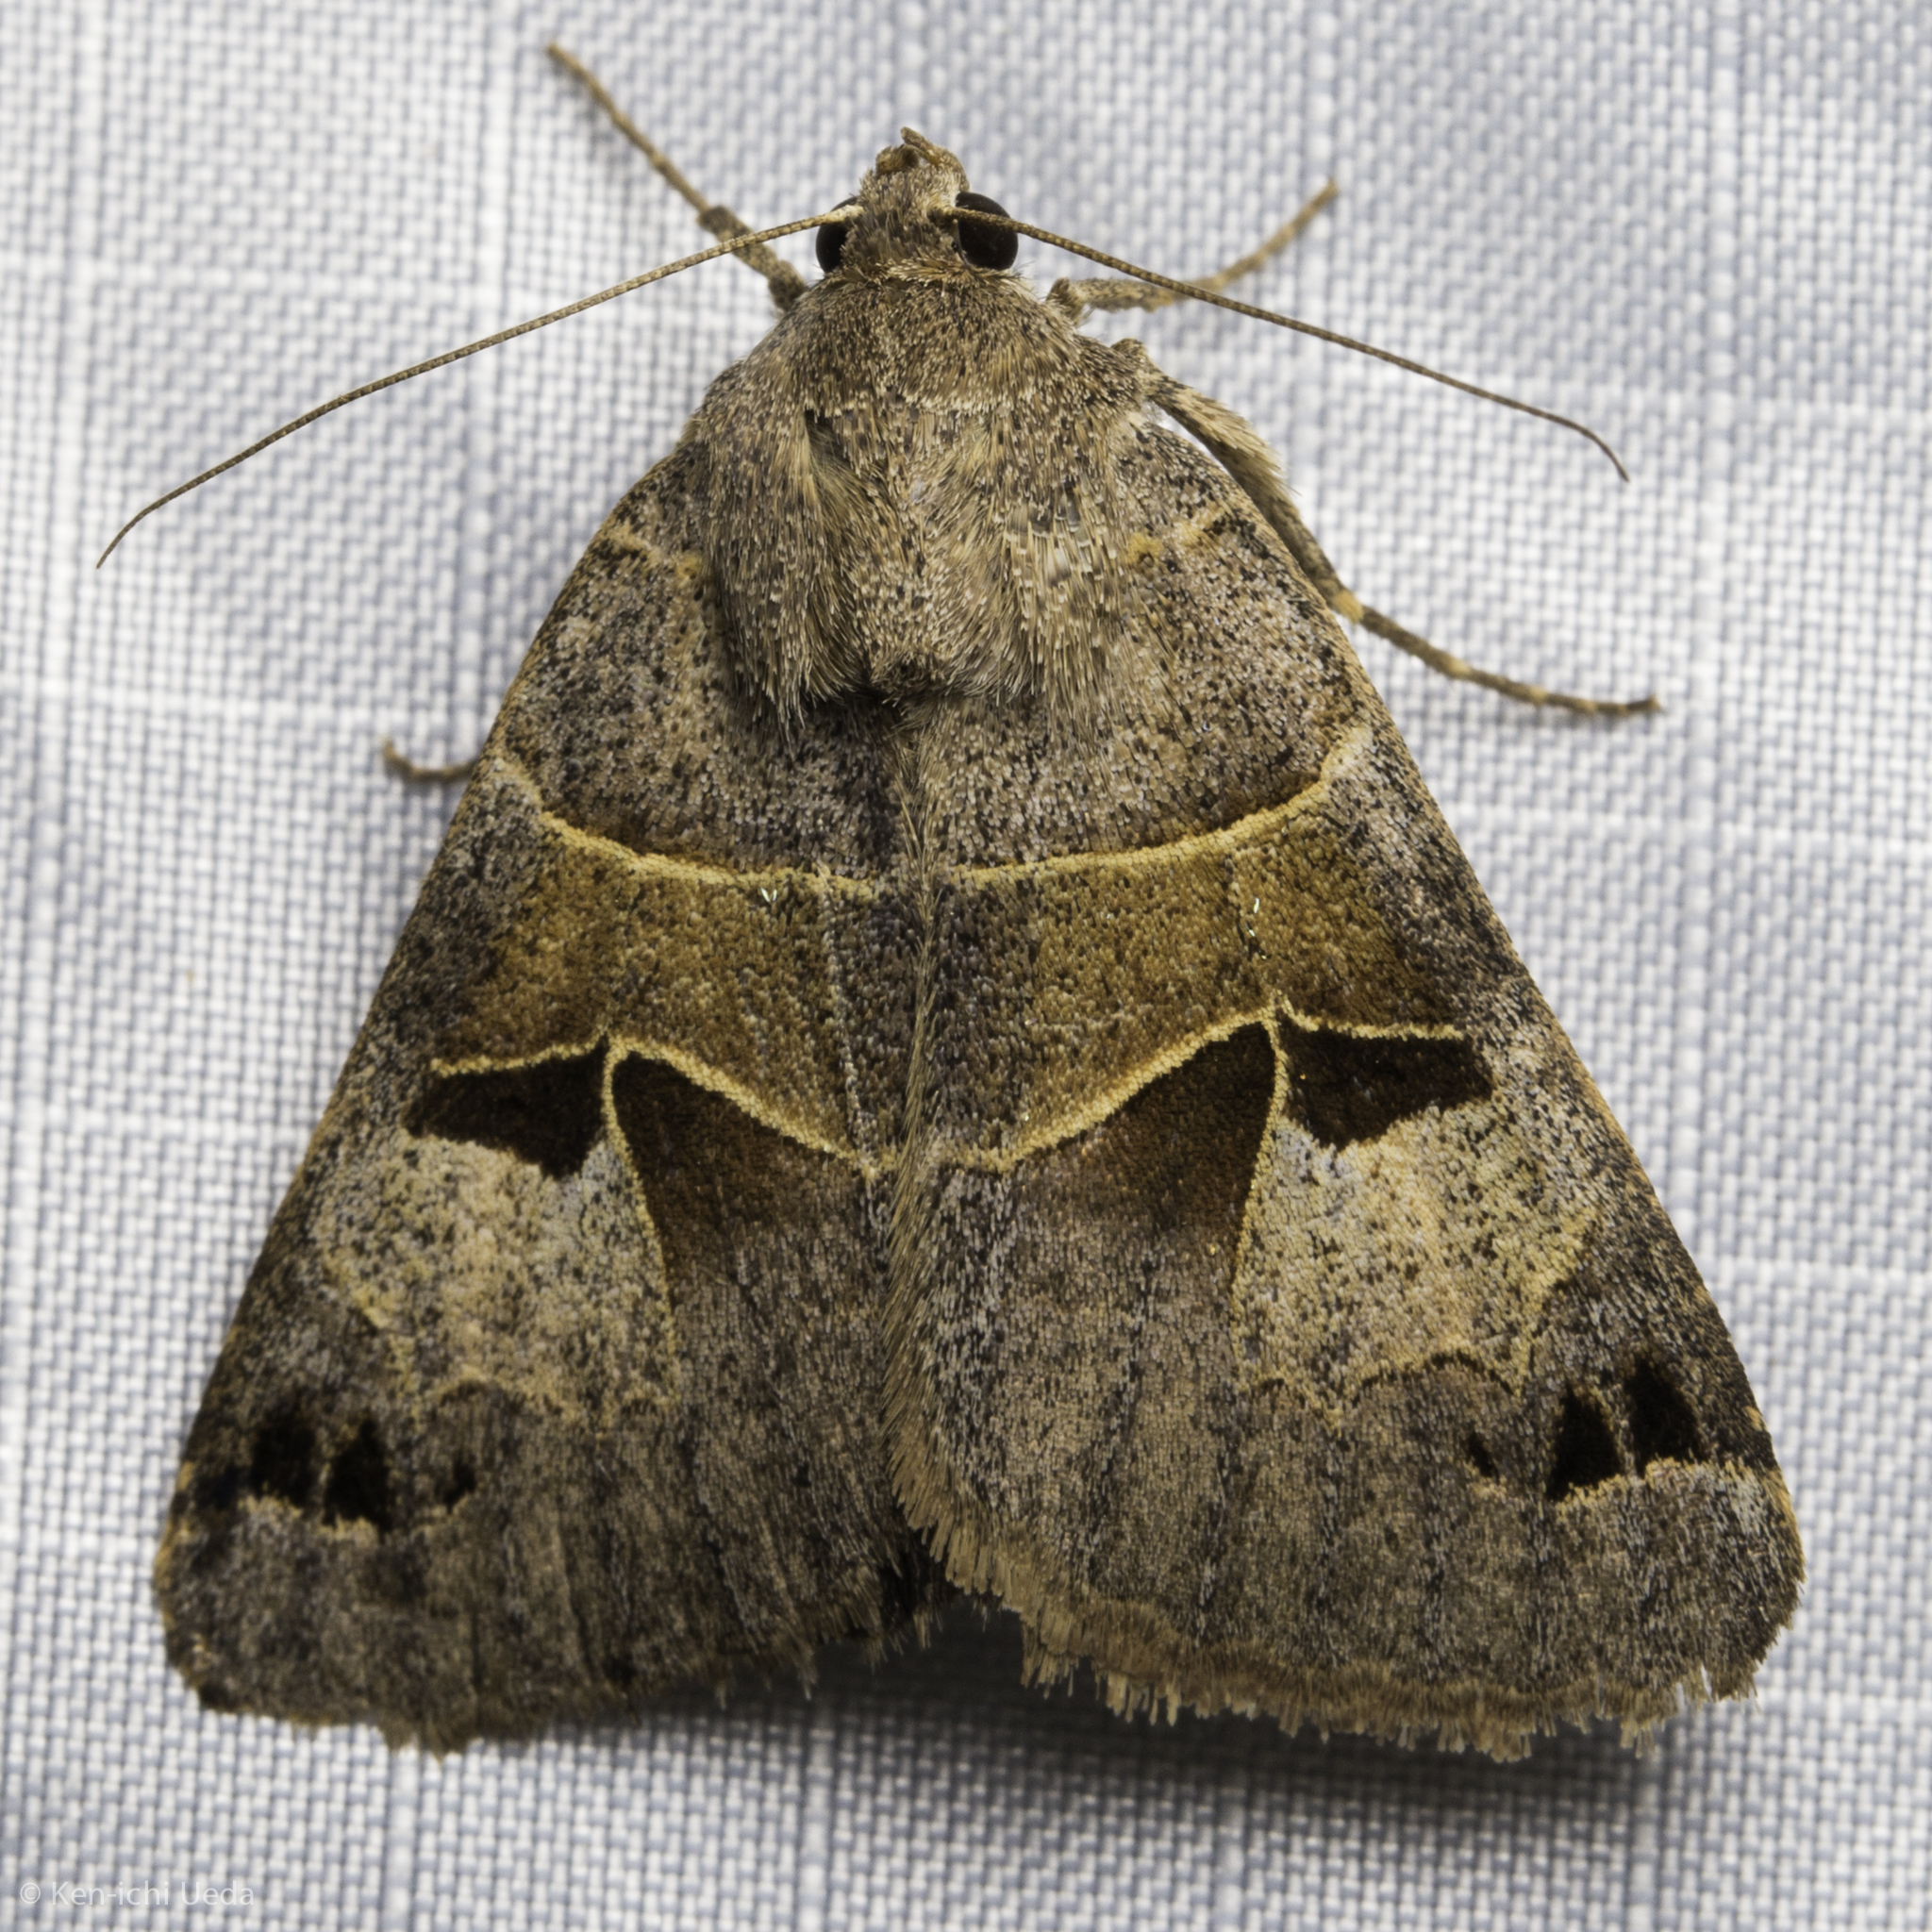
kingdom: Animalia
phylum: Arthropoda
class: Insecta
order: Lepidoptera
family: Erebidae
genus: Drasteria
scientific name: Drasteria edwardsii
